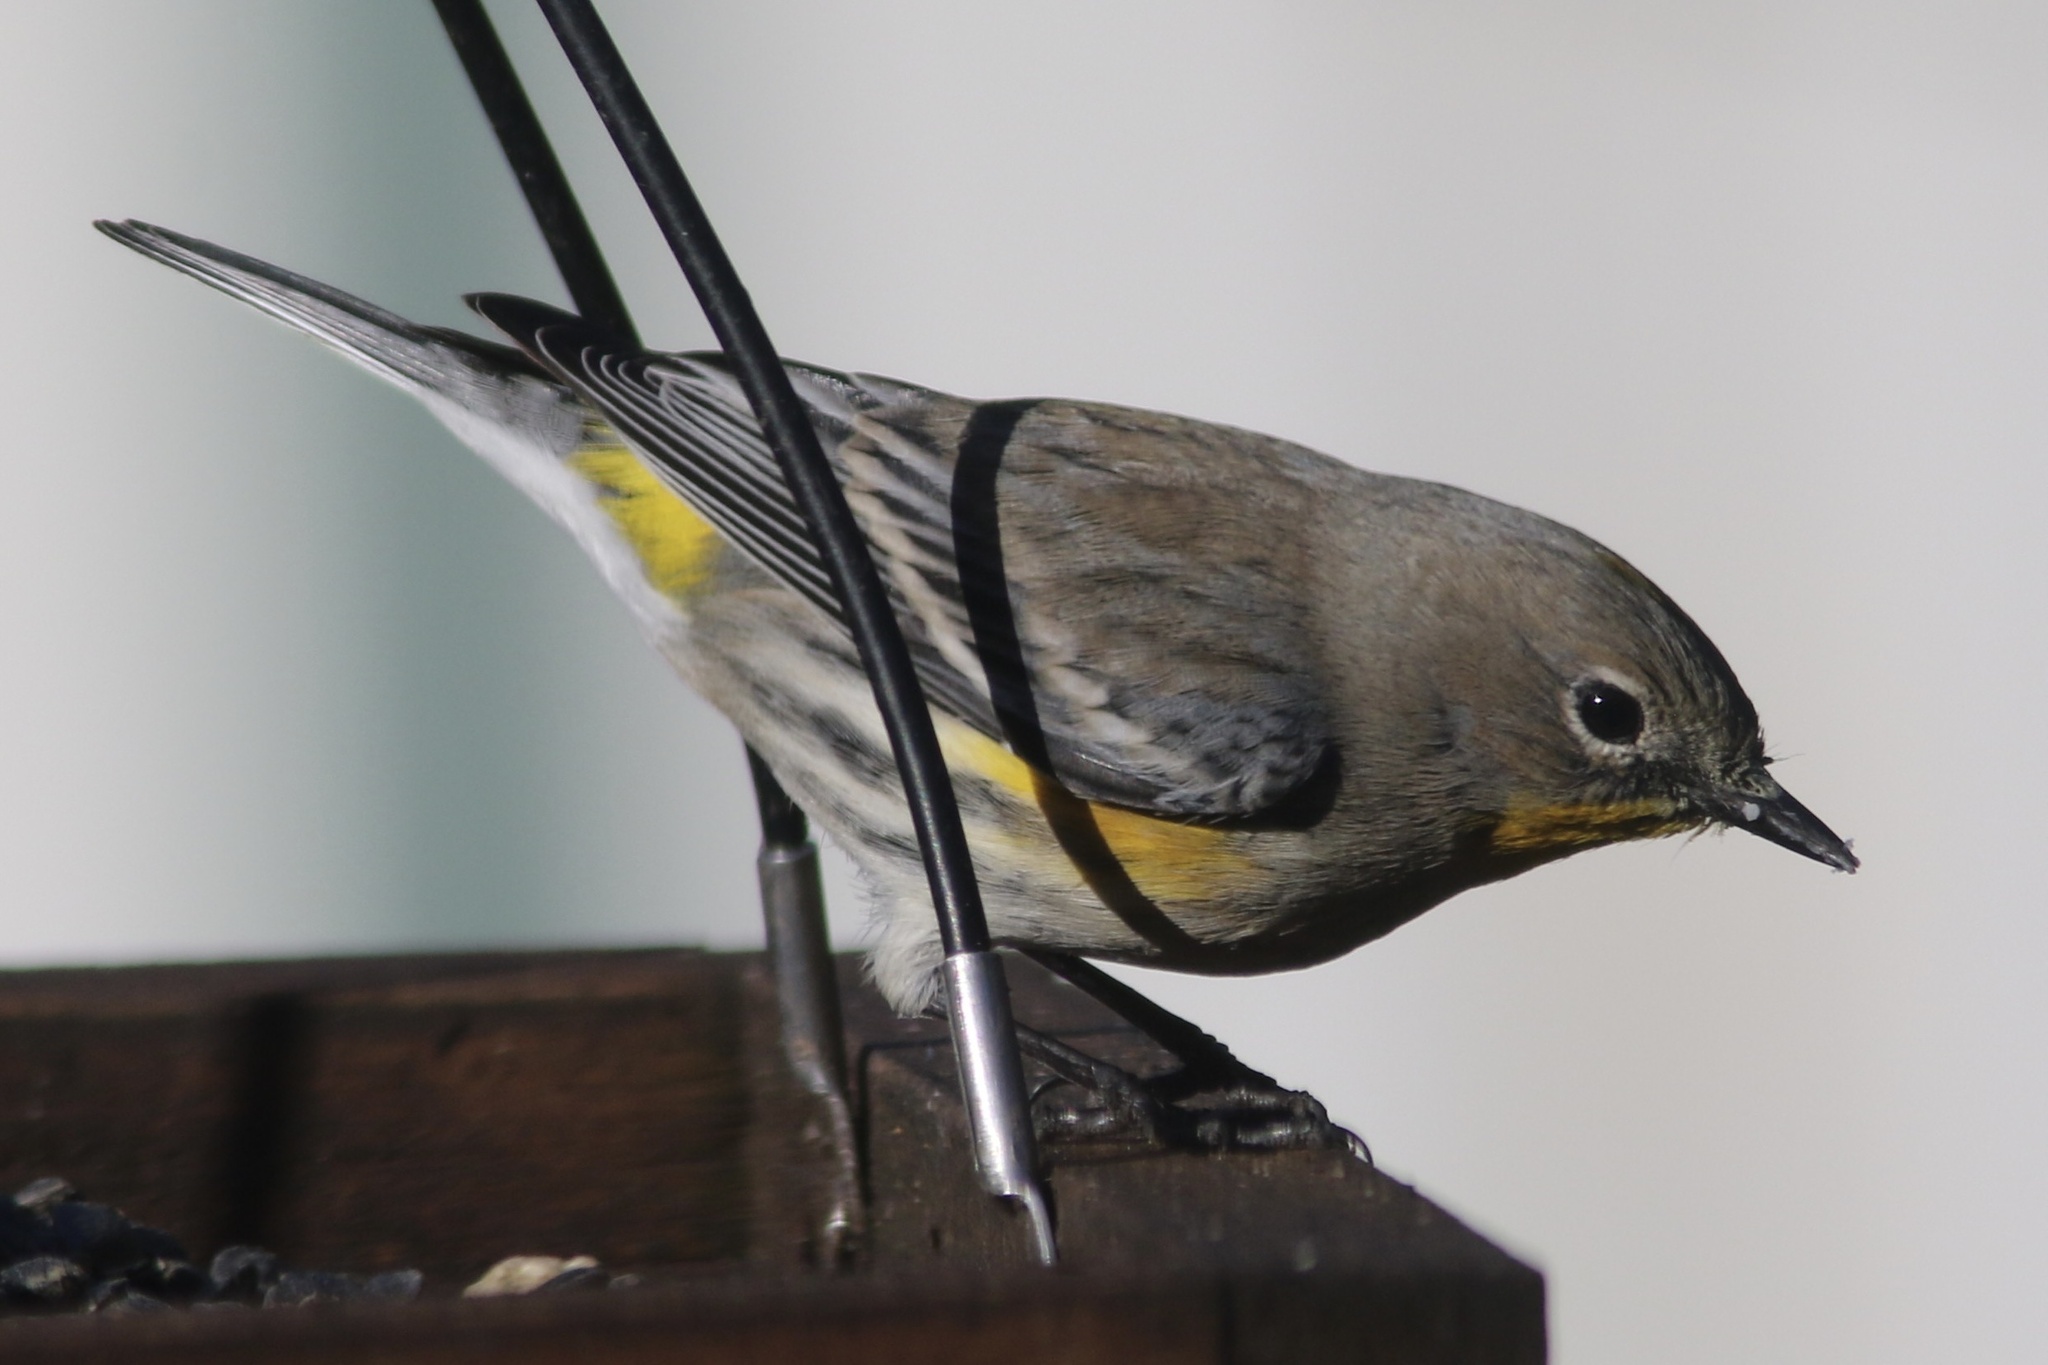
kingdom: Animalia
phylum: Chordata
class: Aves
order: Passeriformes
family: Parulidae
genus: Setophaga
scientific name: Setophaga coronata
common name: Myrtle warbler
